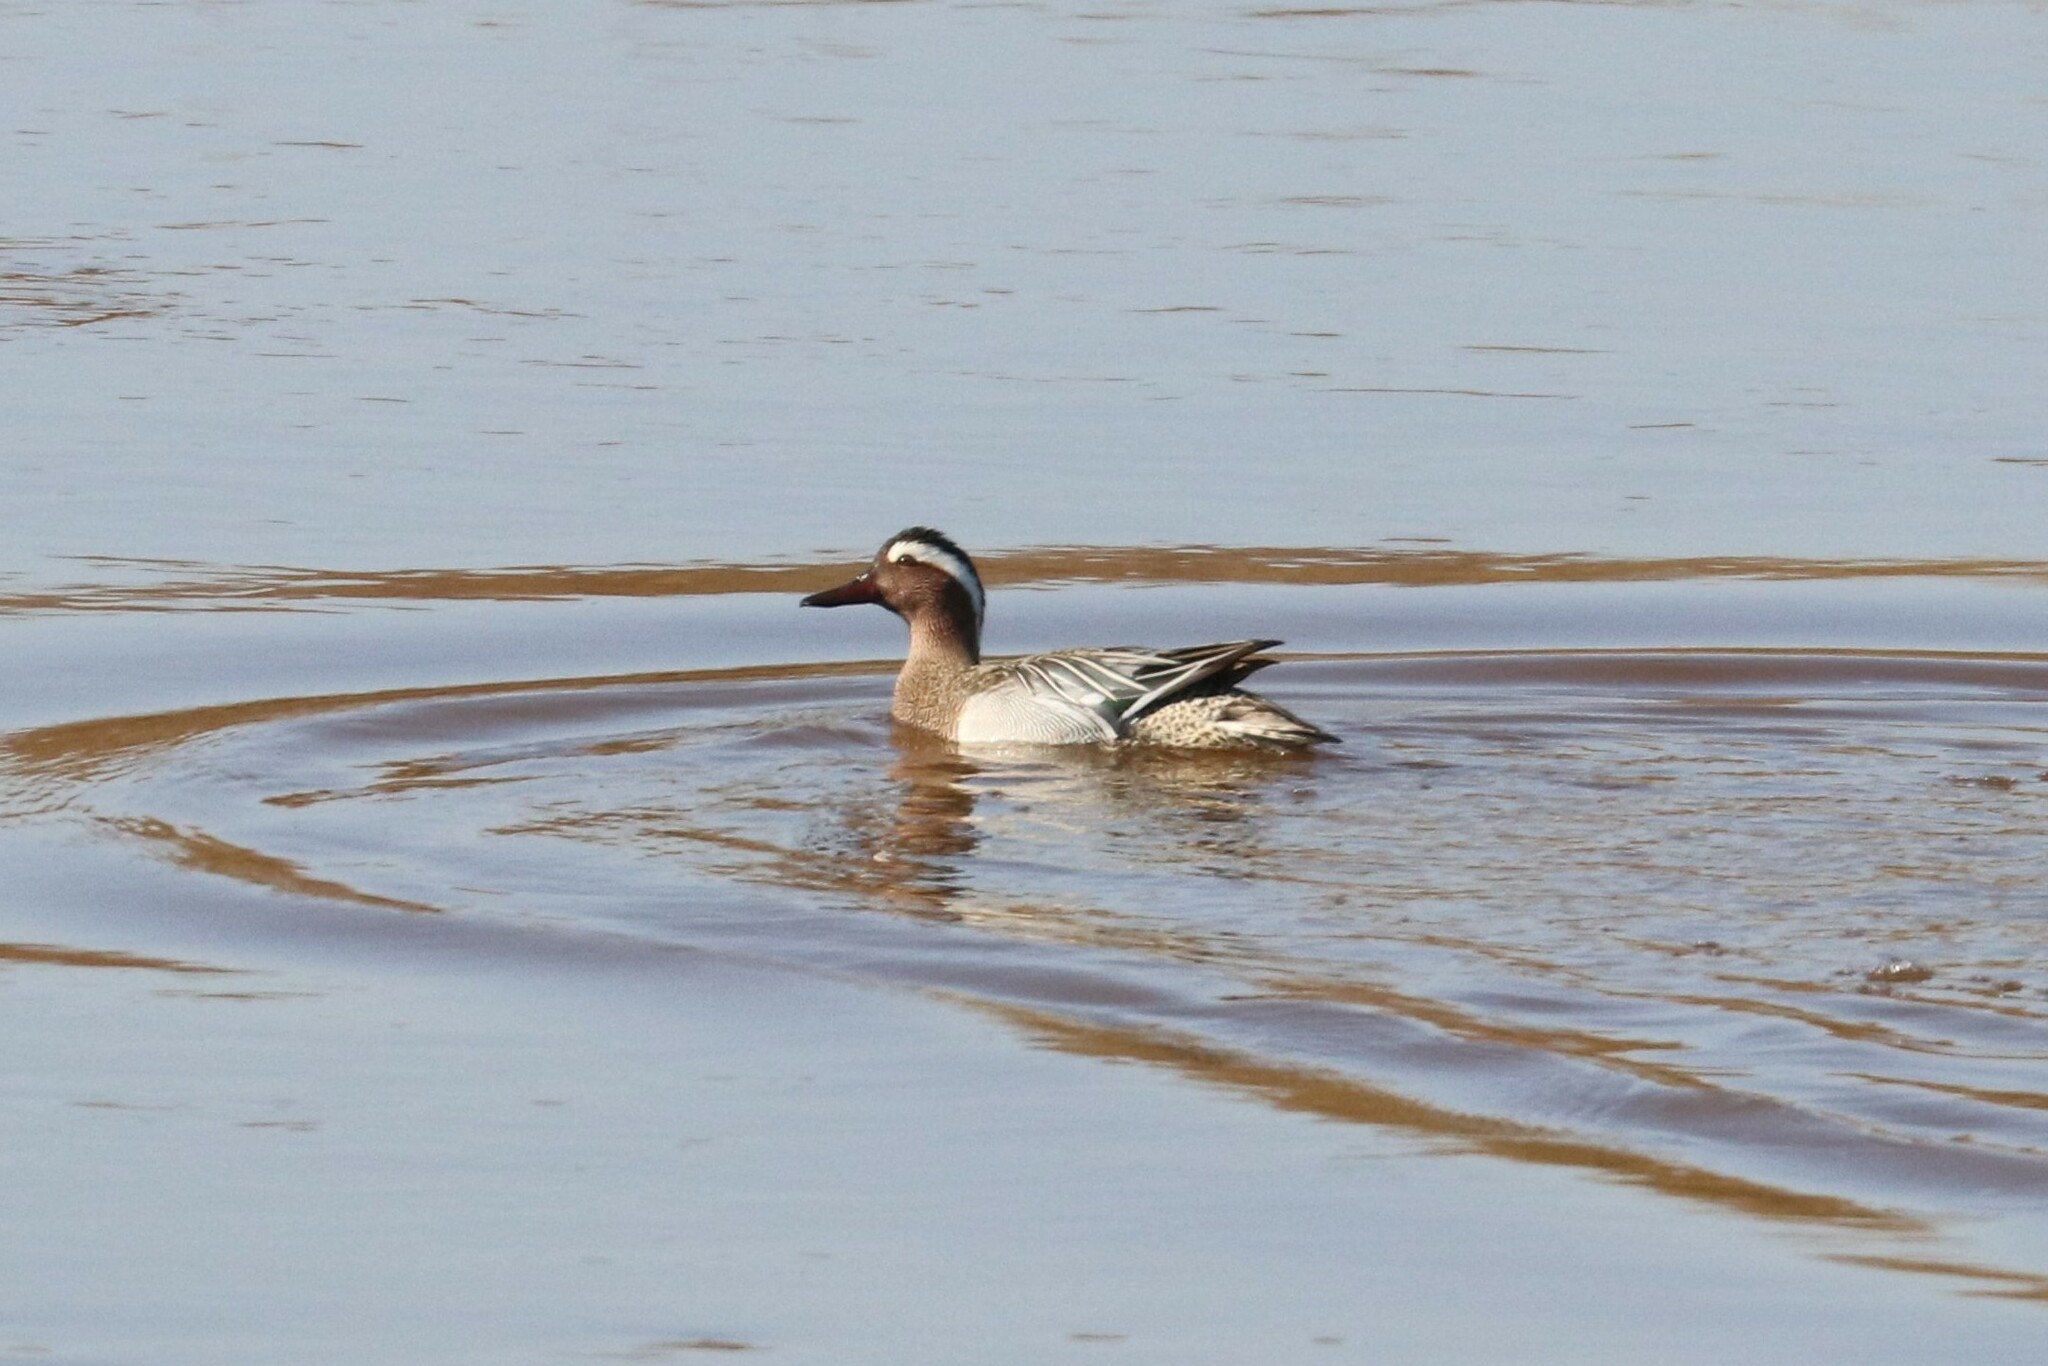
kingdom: Animalia
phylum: Chordata
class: Aves
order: Anseriformes
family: Anatidae
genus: Spatula
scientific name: Spatula querquedula
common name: Garganey
